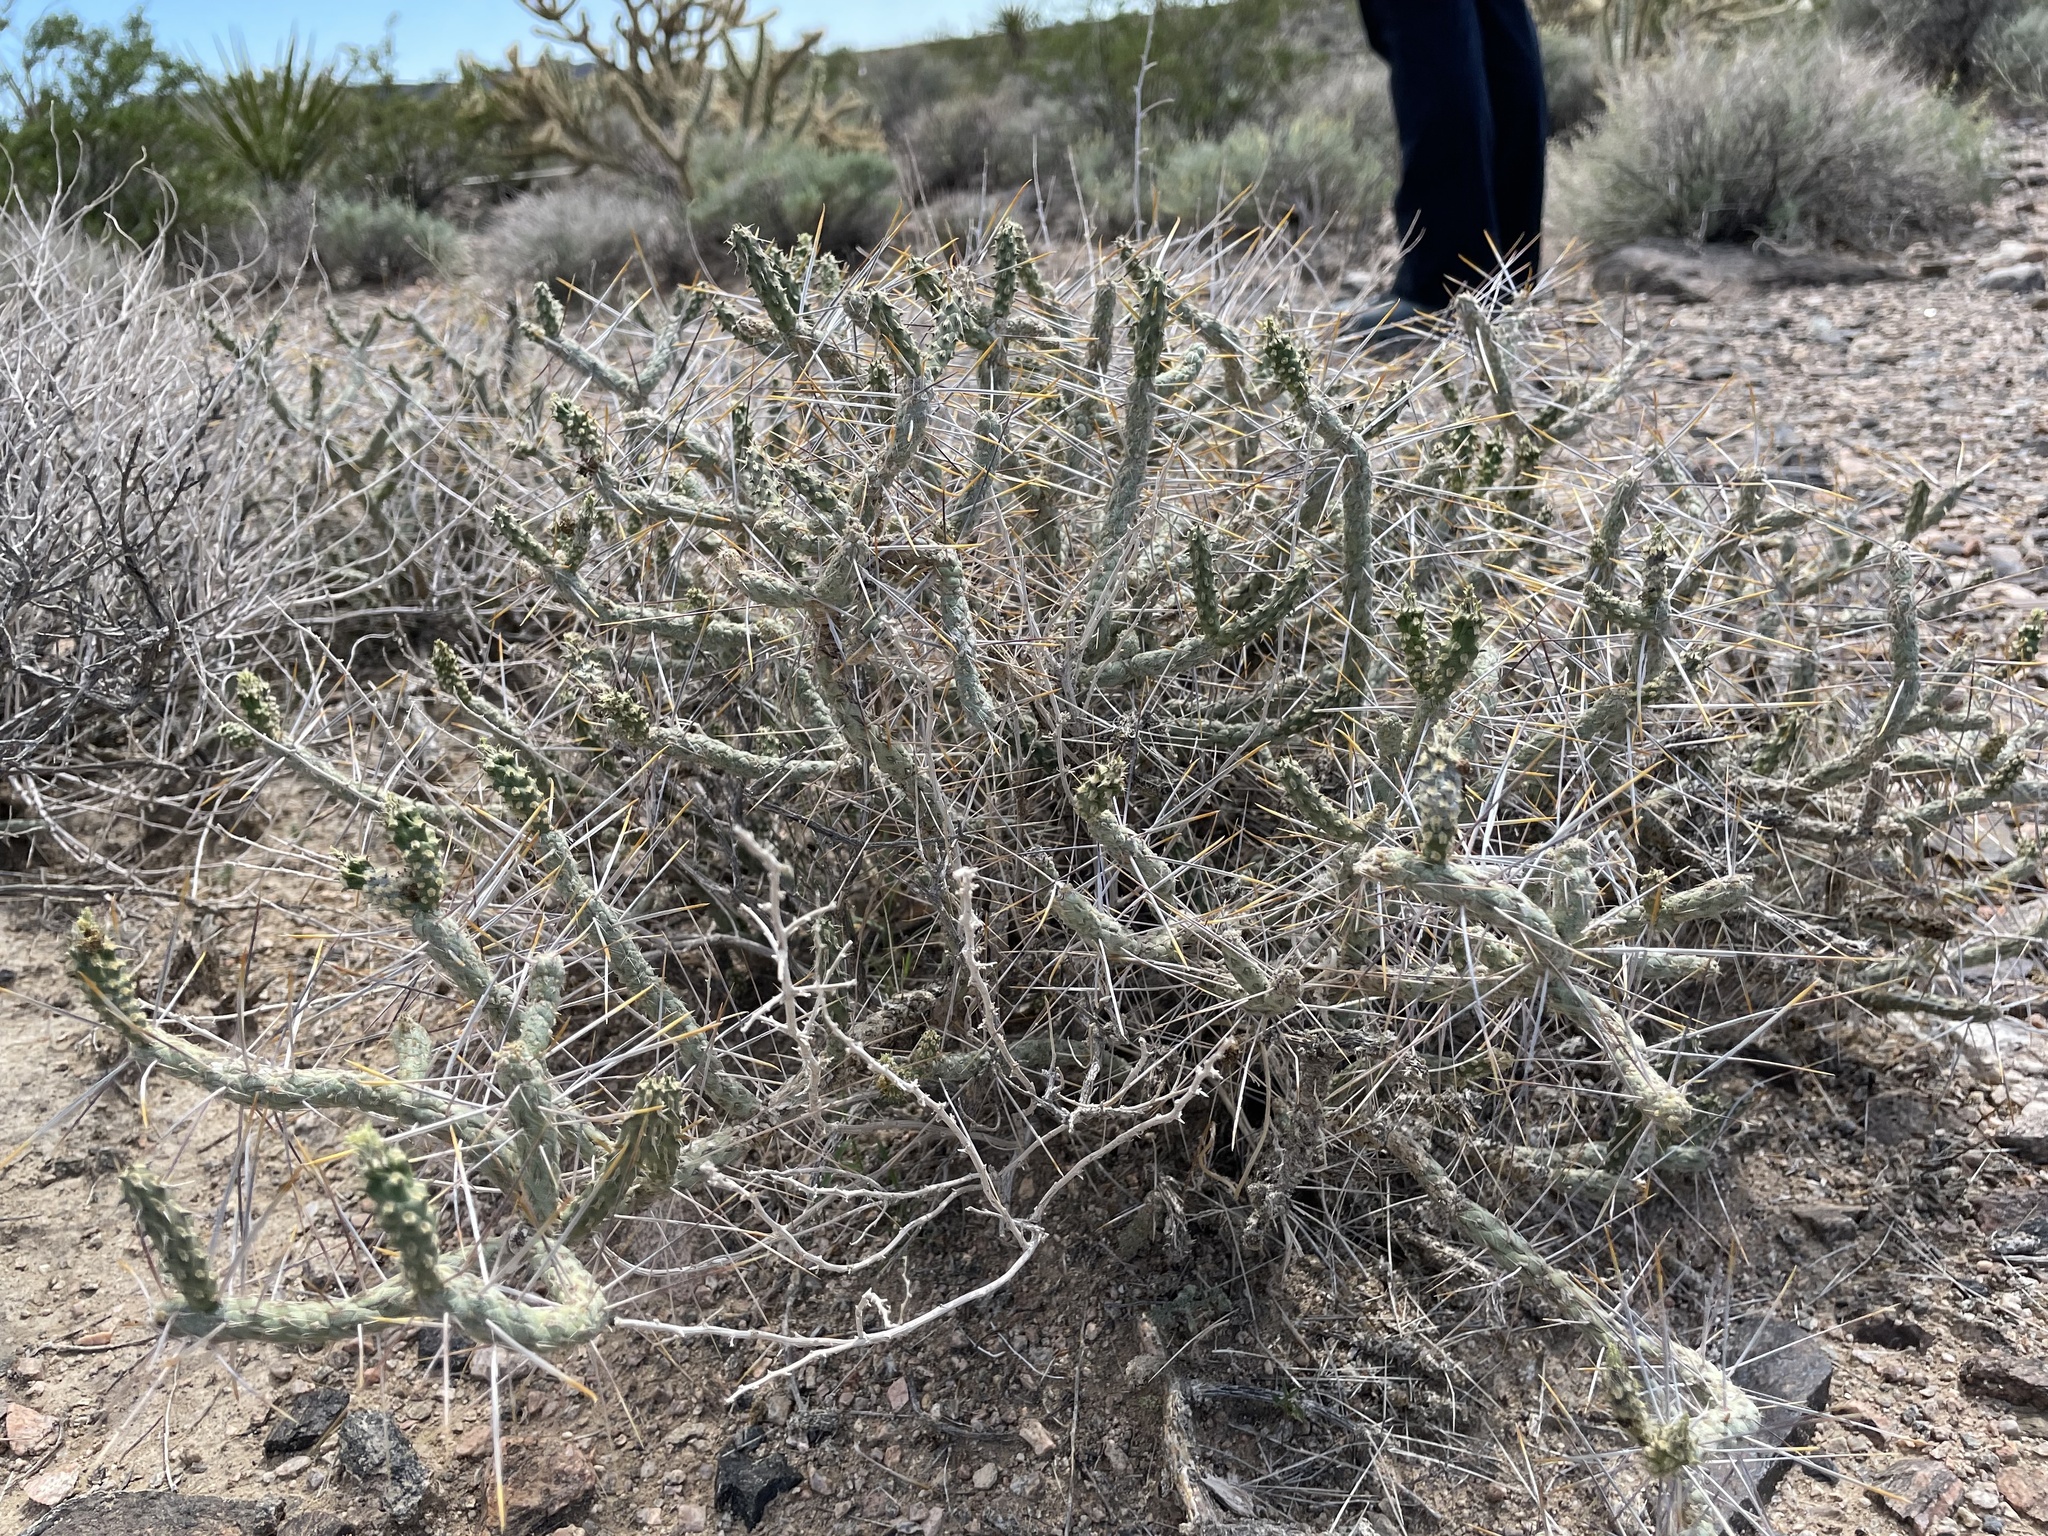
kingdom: Plantae
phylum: Tracheophyta
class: Magnoliopsida
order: Caryophyllales
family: Cactaceae
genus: Cylindropuntia
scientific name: Cylindropuntia ramosissima
